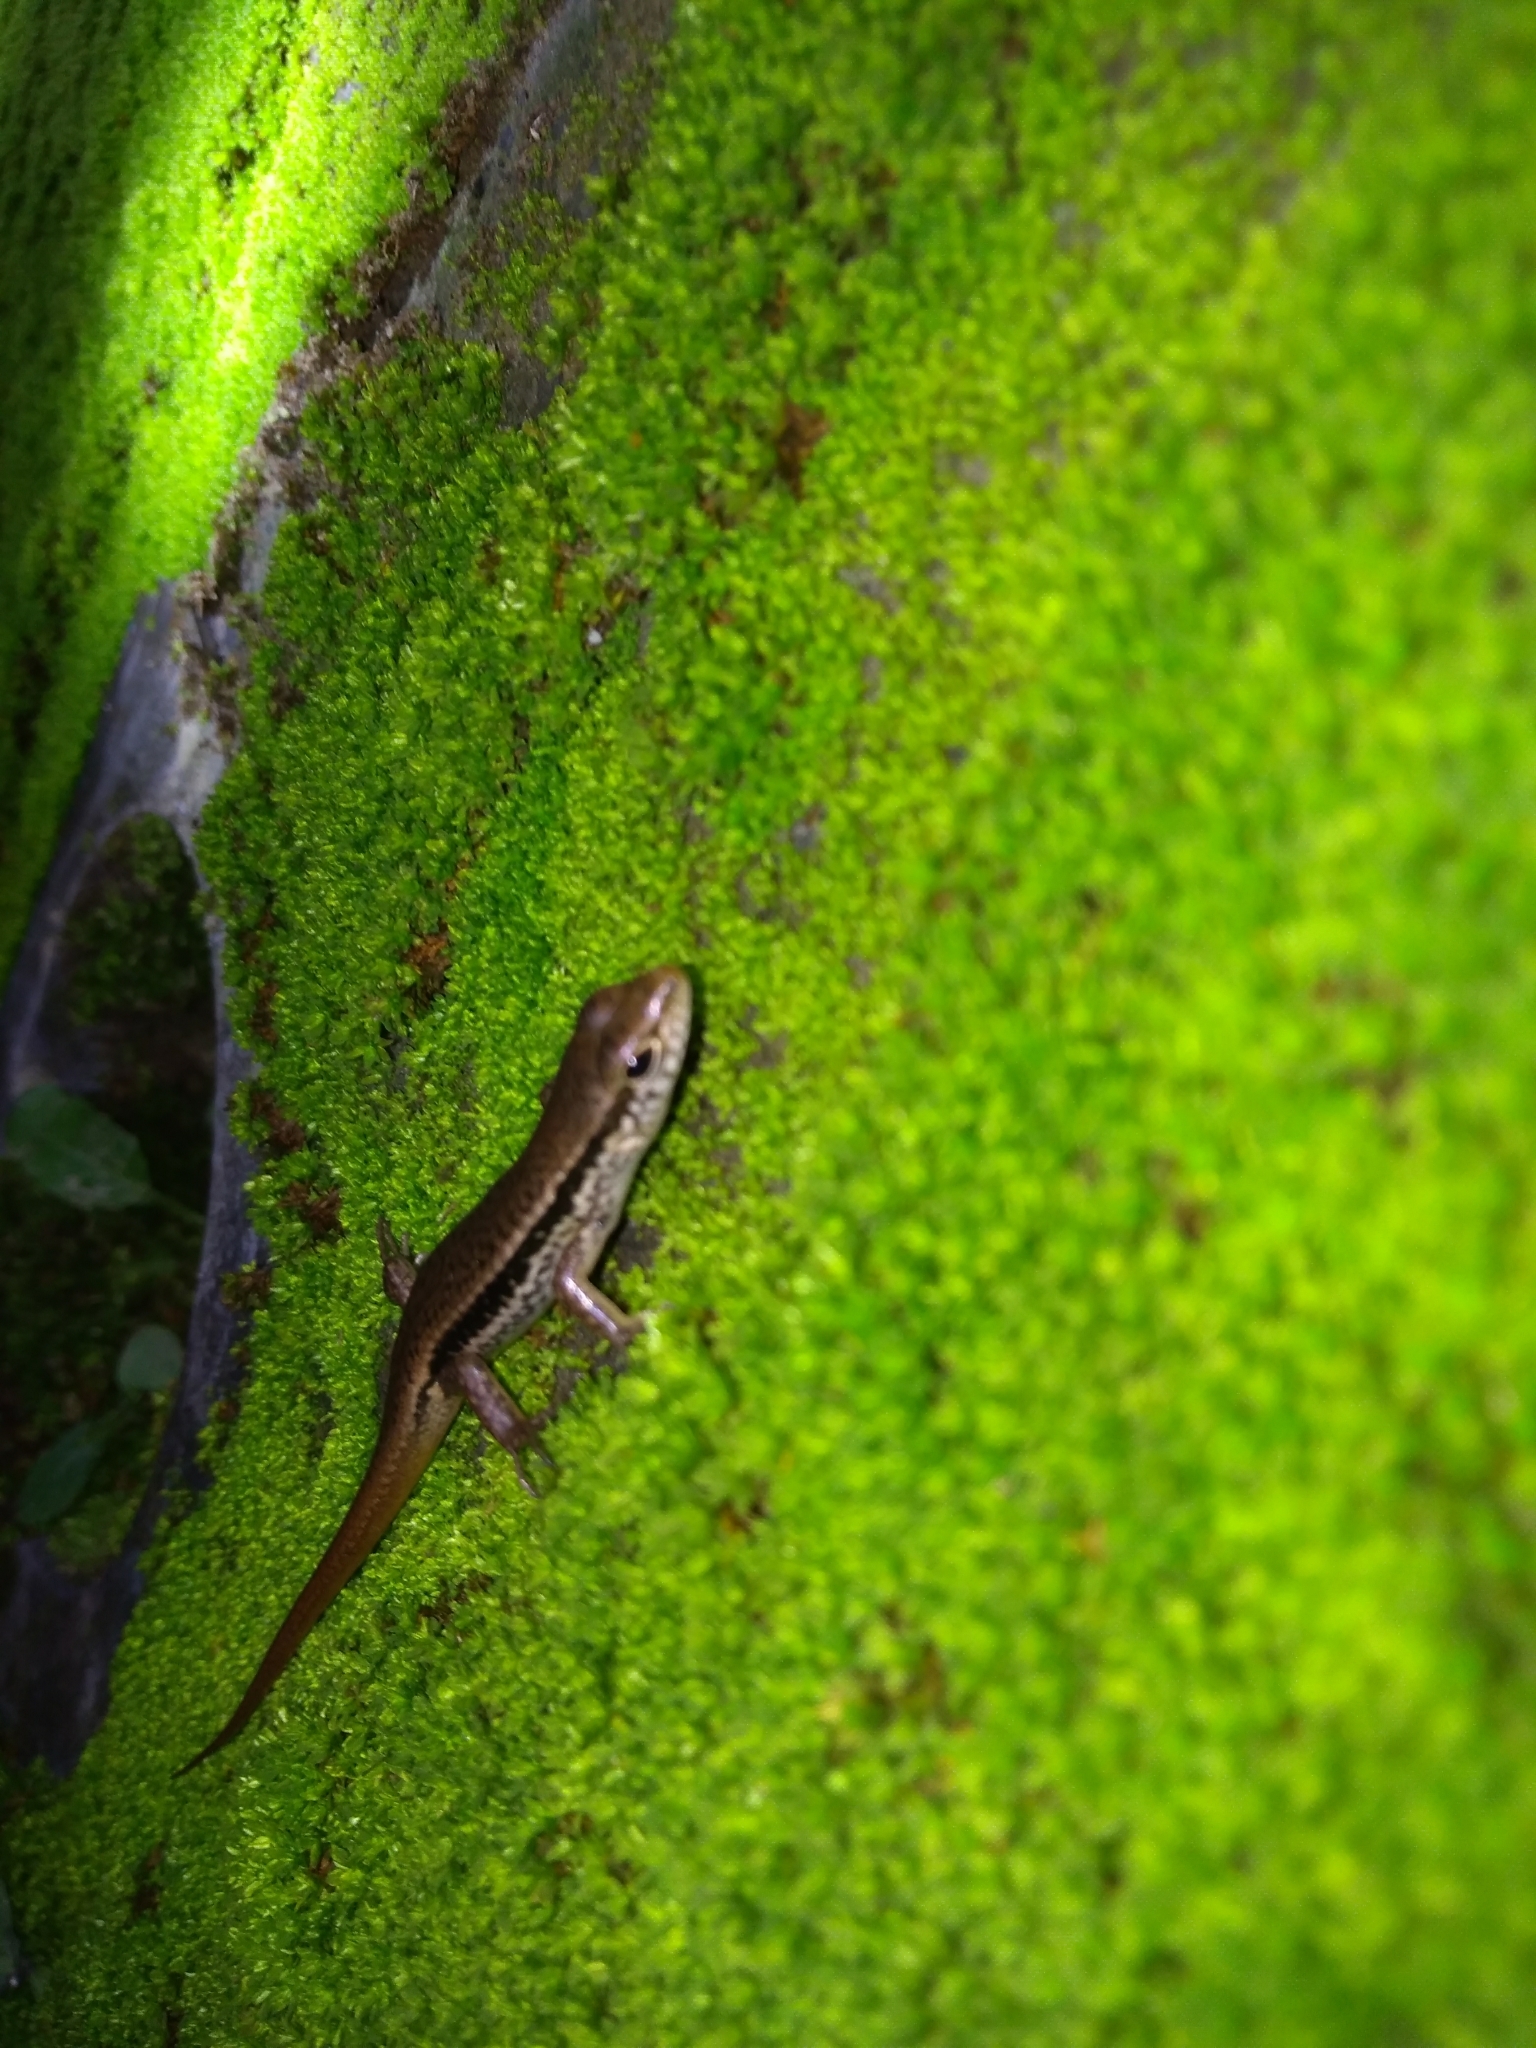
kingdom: Animalia
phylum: Chordata
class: Squamata
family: Scincidae
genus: Sphenomorphus
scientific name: Sphenomorphus indicus
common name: Himalayan forest skink
